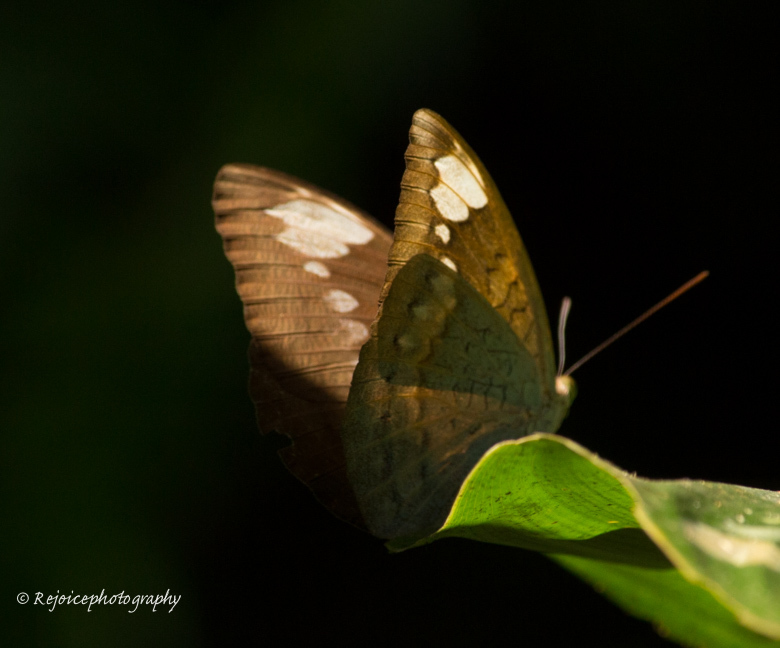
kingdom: Animalia
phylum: Arthropoda
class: Insecta
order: Lepidoptera
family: Nymphalidae
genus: Tanaecia
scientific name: Tanaecia julii
